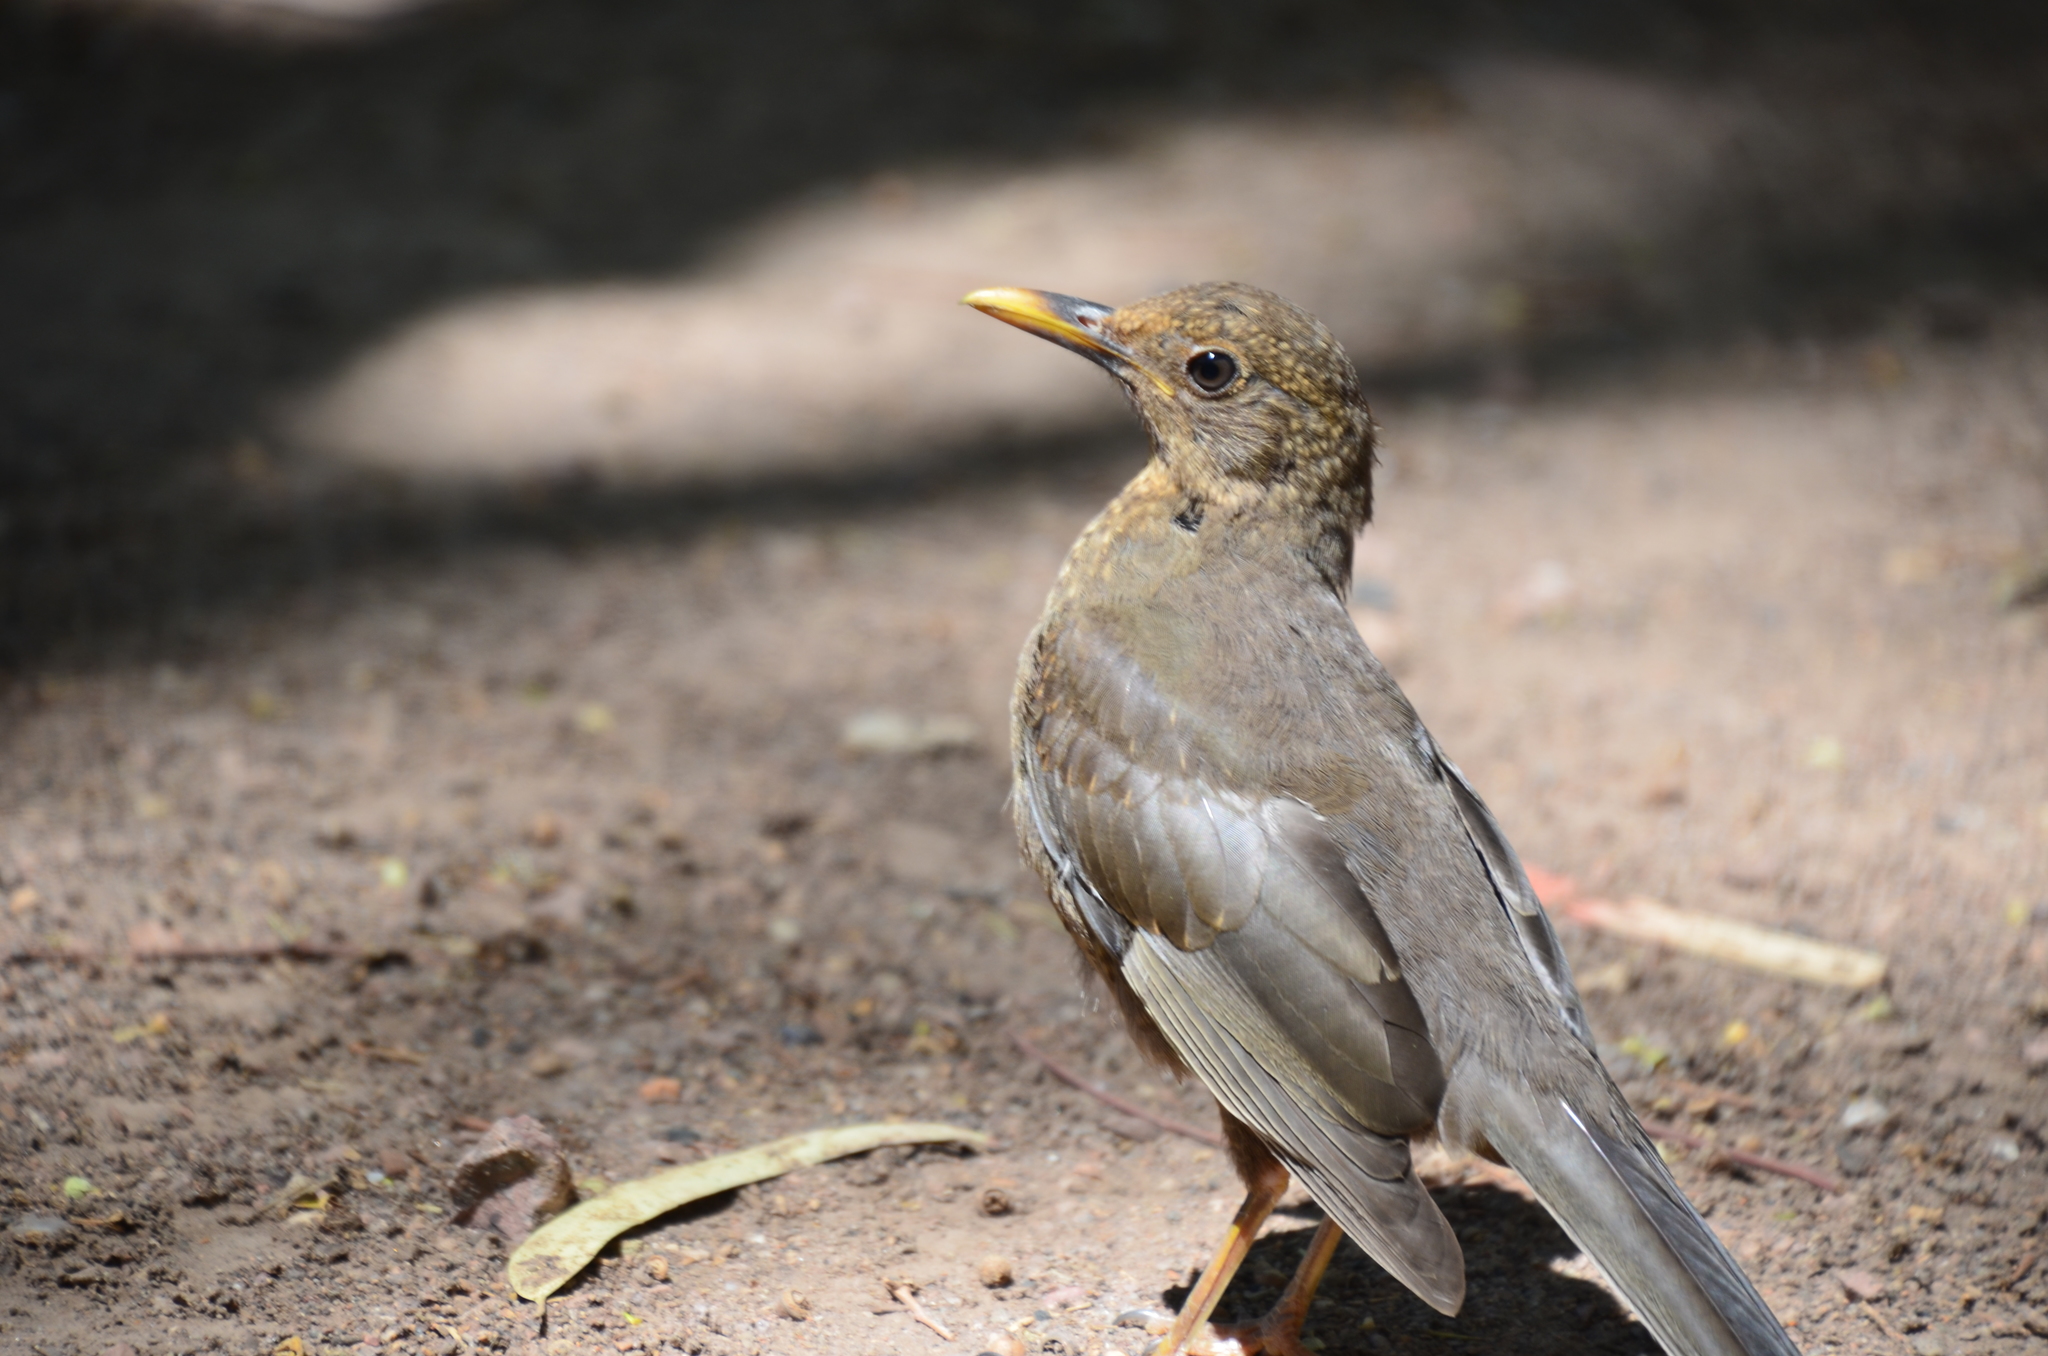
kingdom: Animalia
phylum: Chordata
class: Aves
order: Passeriformes
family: Turdidae
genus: Turdus
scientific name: Turdus chiguanco
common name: Chiguanco thrush
